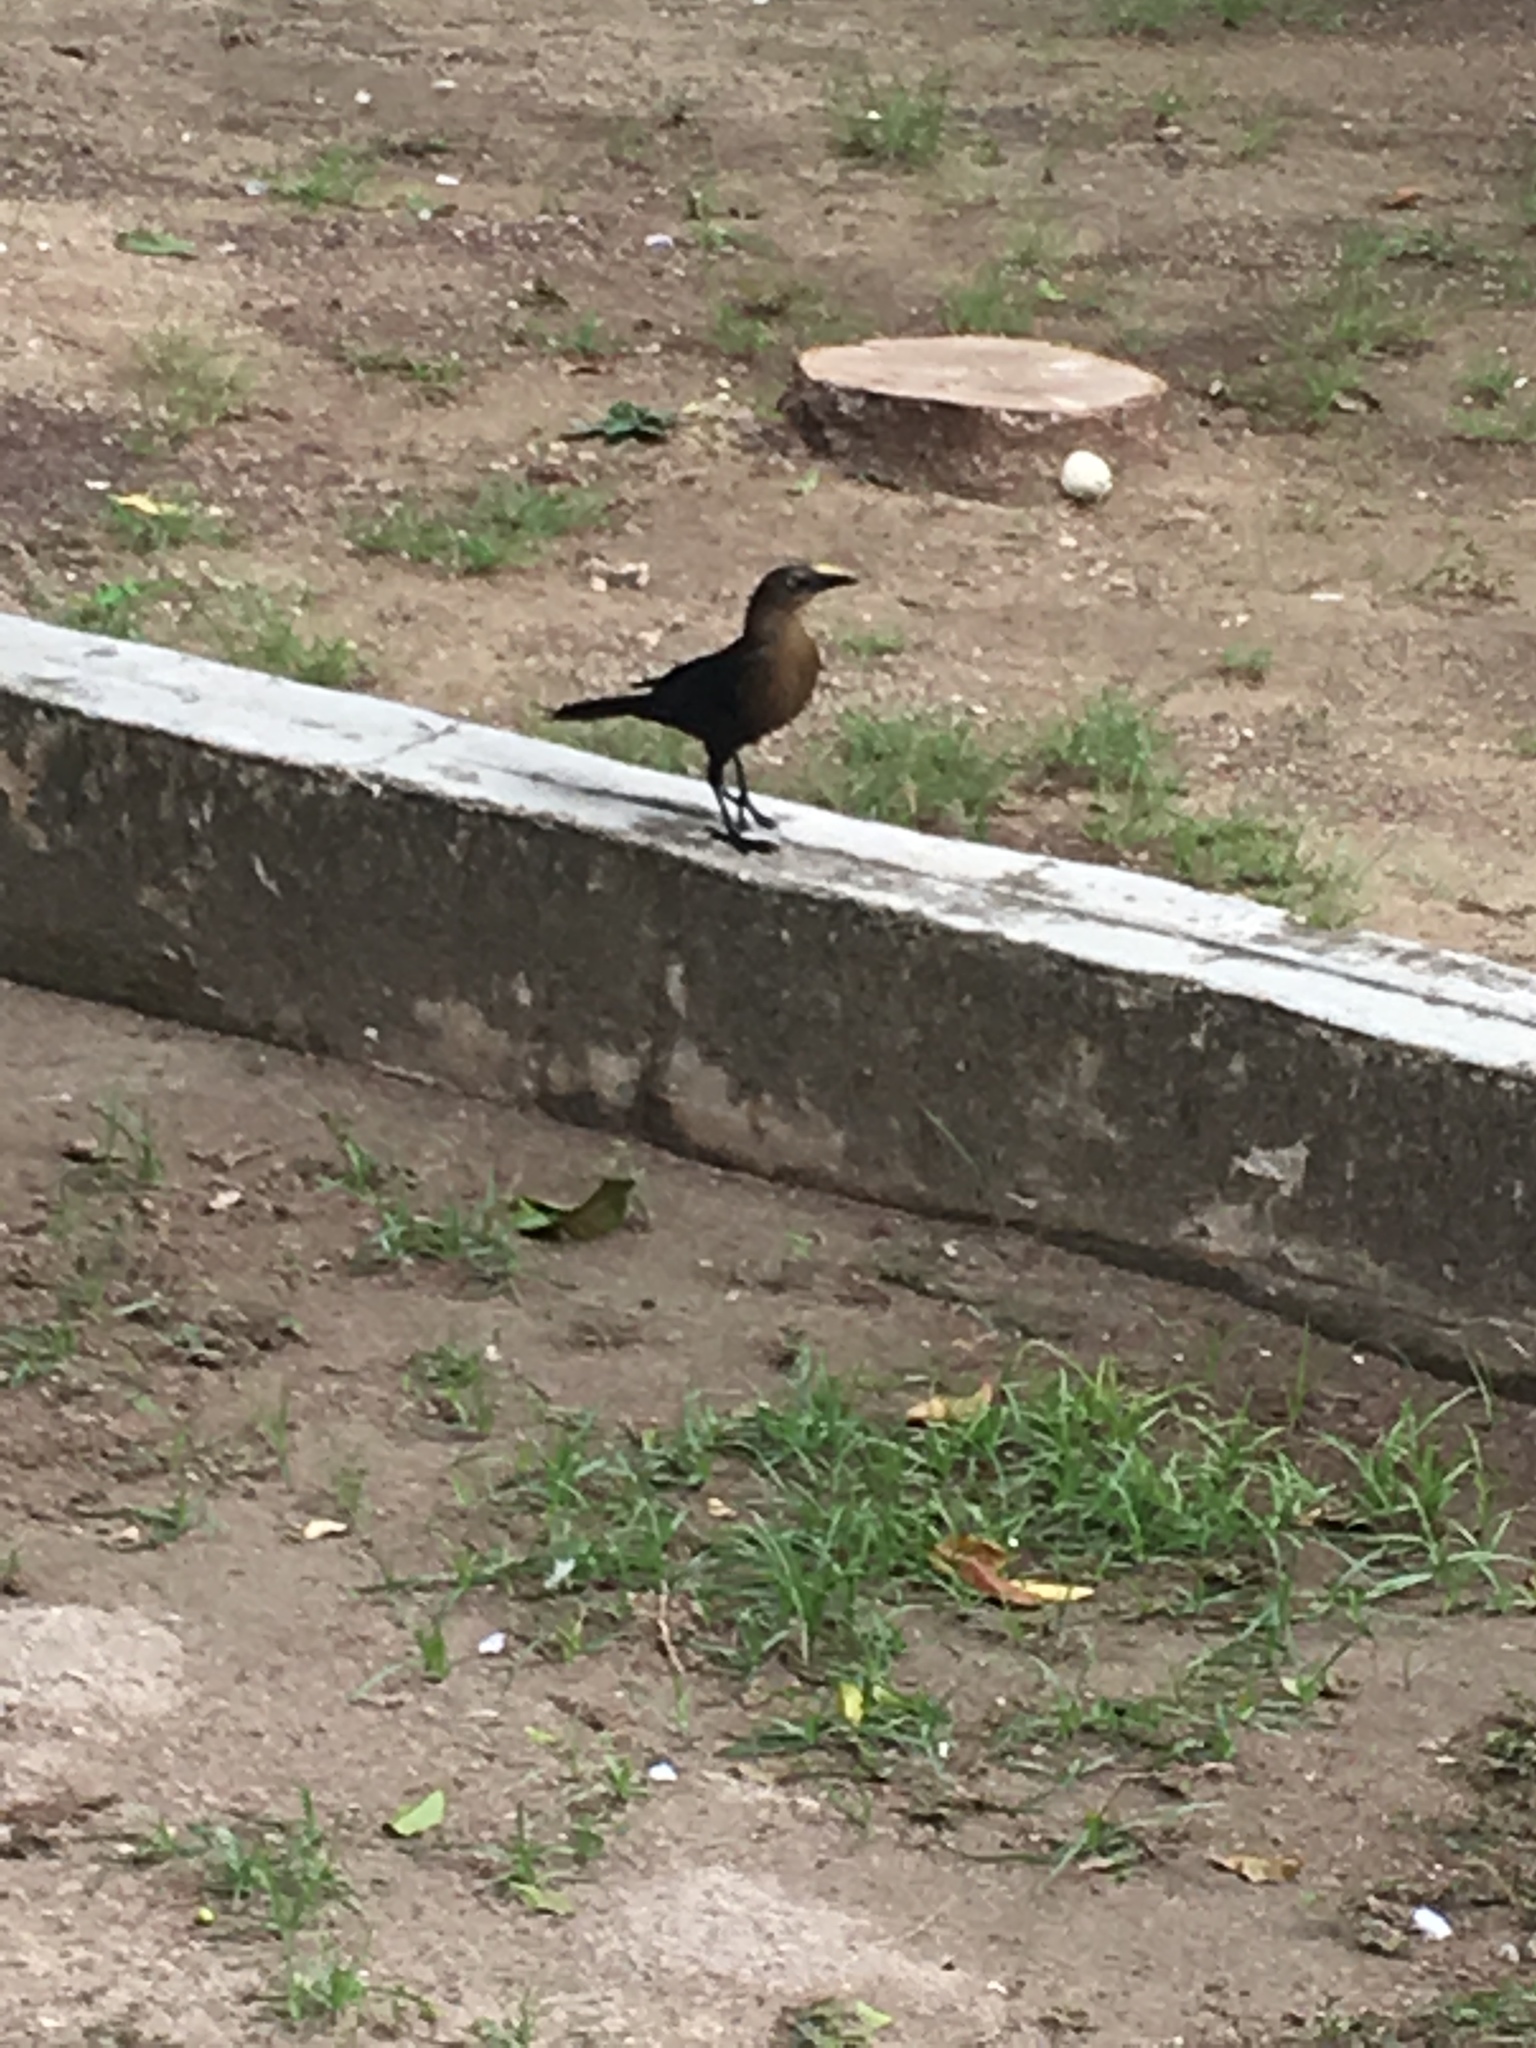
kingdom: Animalia
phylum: Chordata
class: Aves
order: Passeriformes
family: Icteridae
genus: Quiscalus
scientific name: Quiscalus mexicanus
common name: Great-tailed grackle
